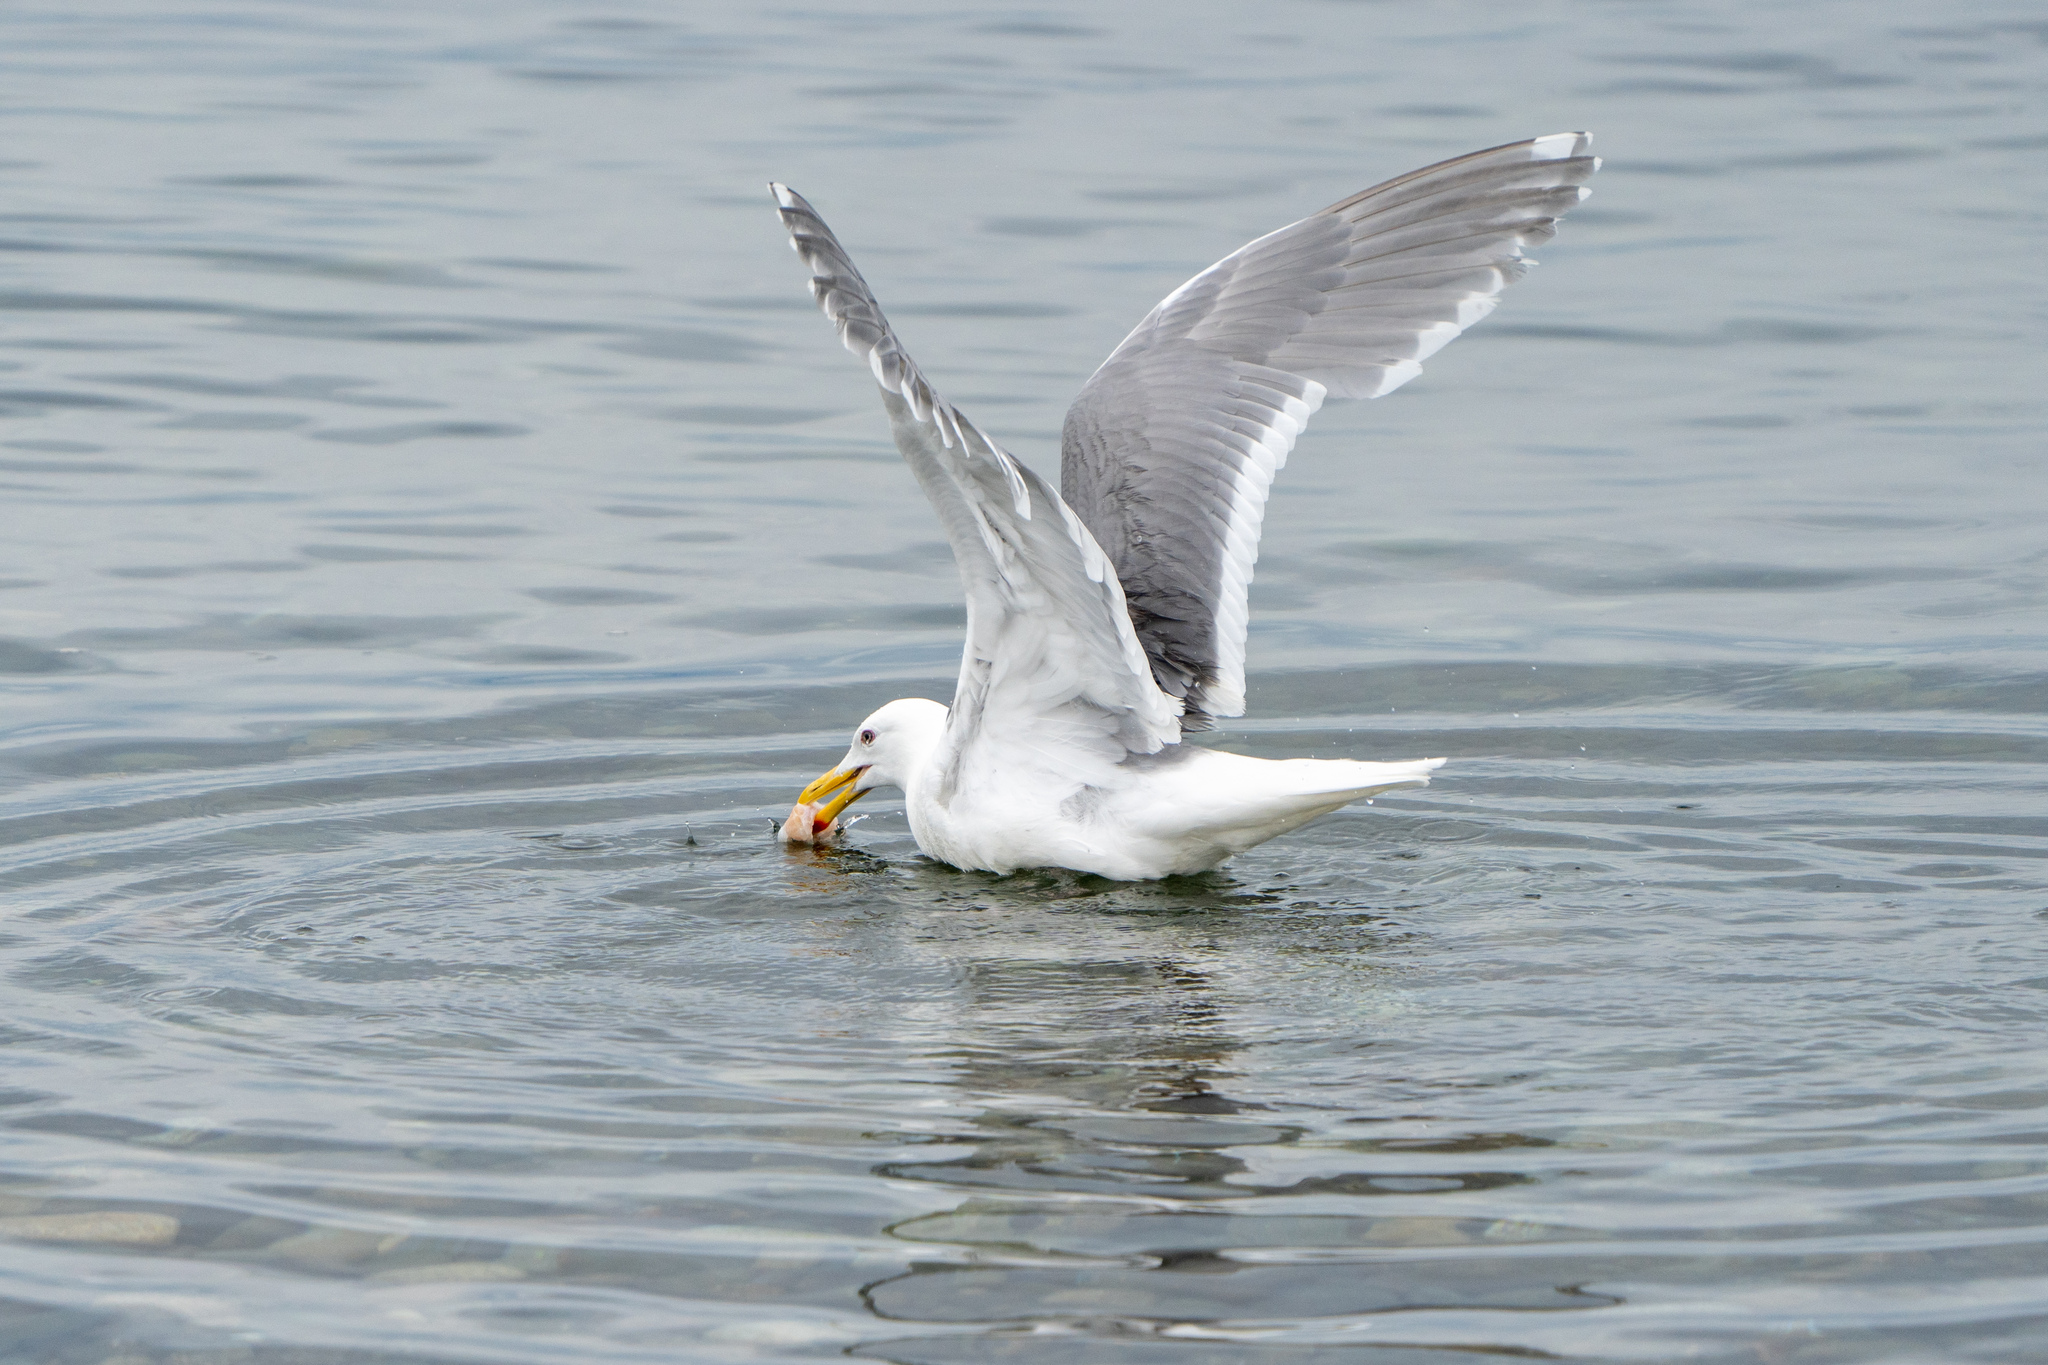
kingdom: Animalia
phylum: Chordata
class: Aves
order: Charadriiformes
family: Laridae
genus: Larus
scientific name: Larus glaucescens
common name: Glaucous-winged gull
